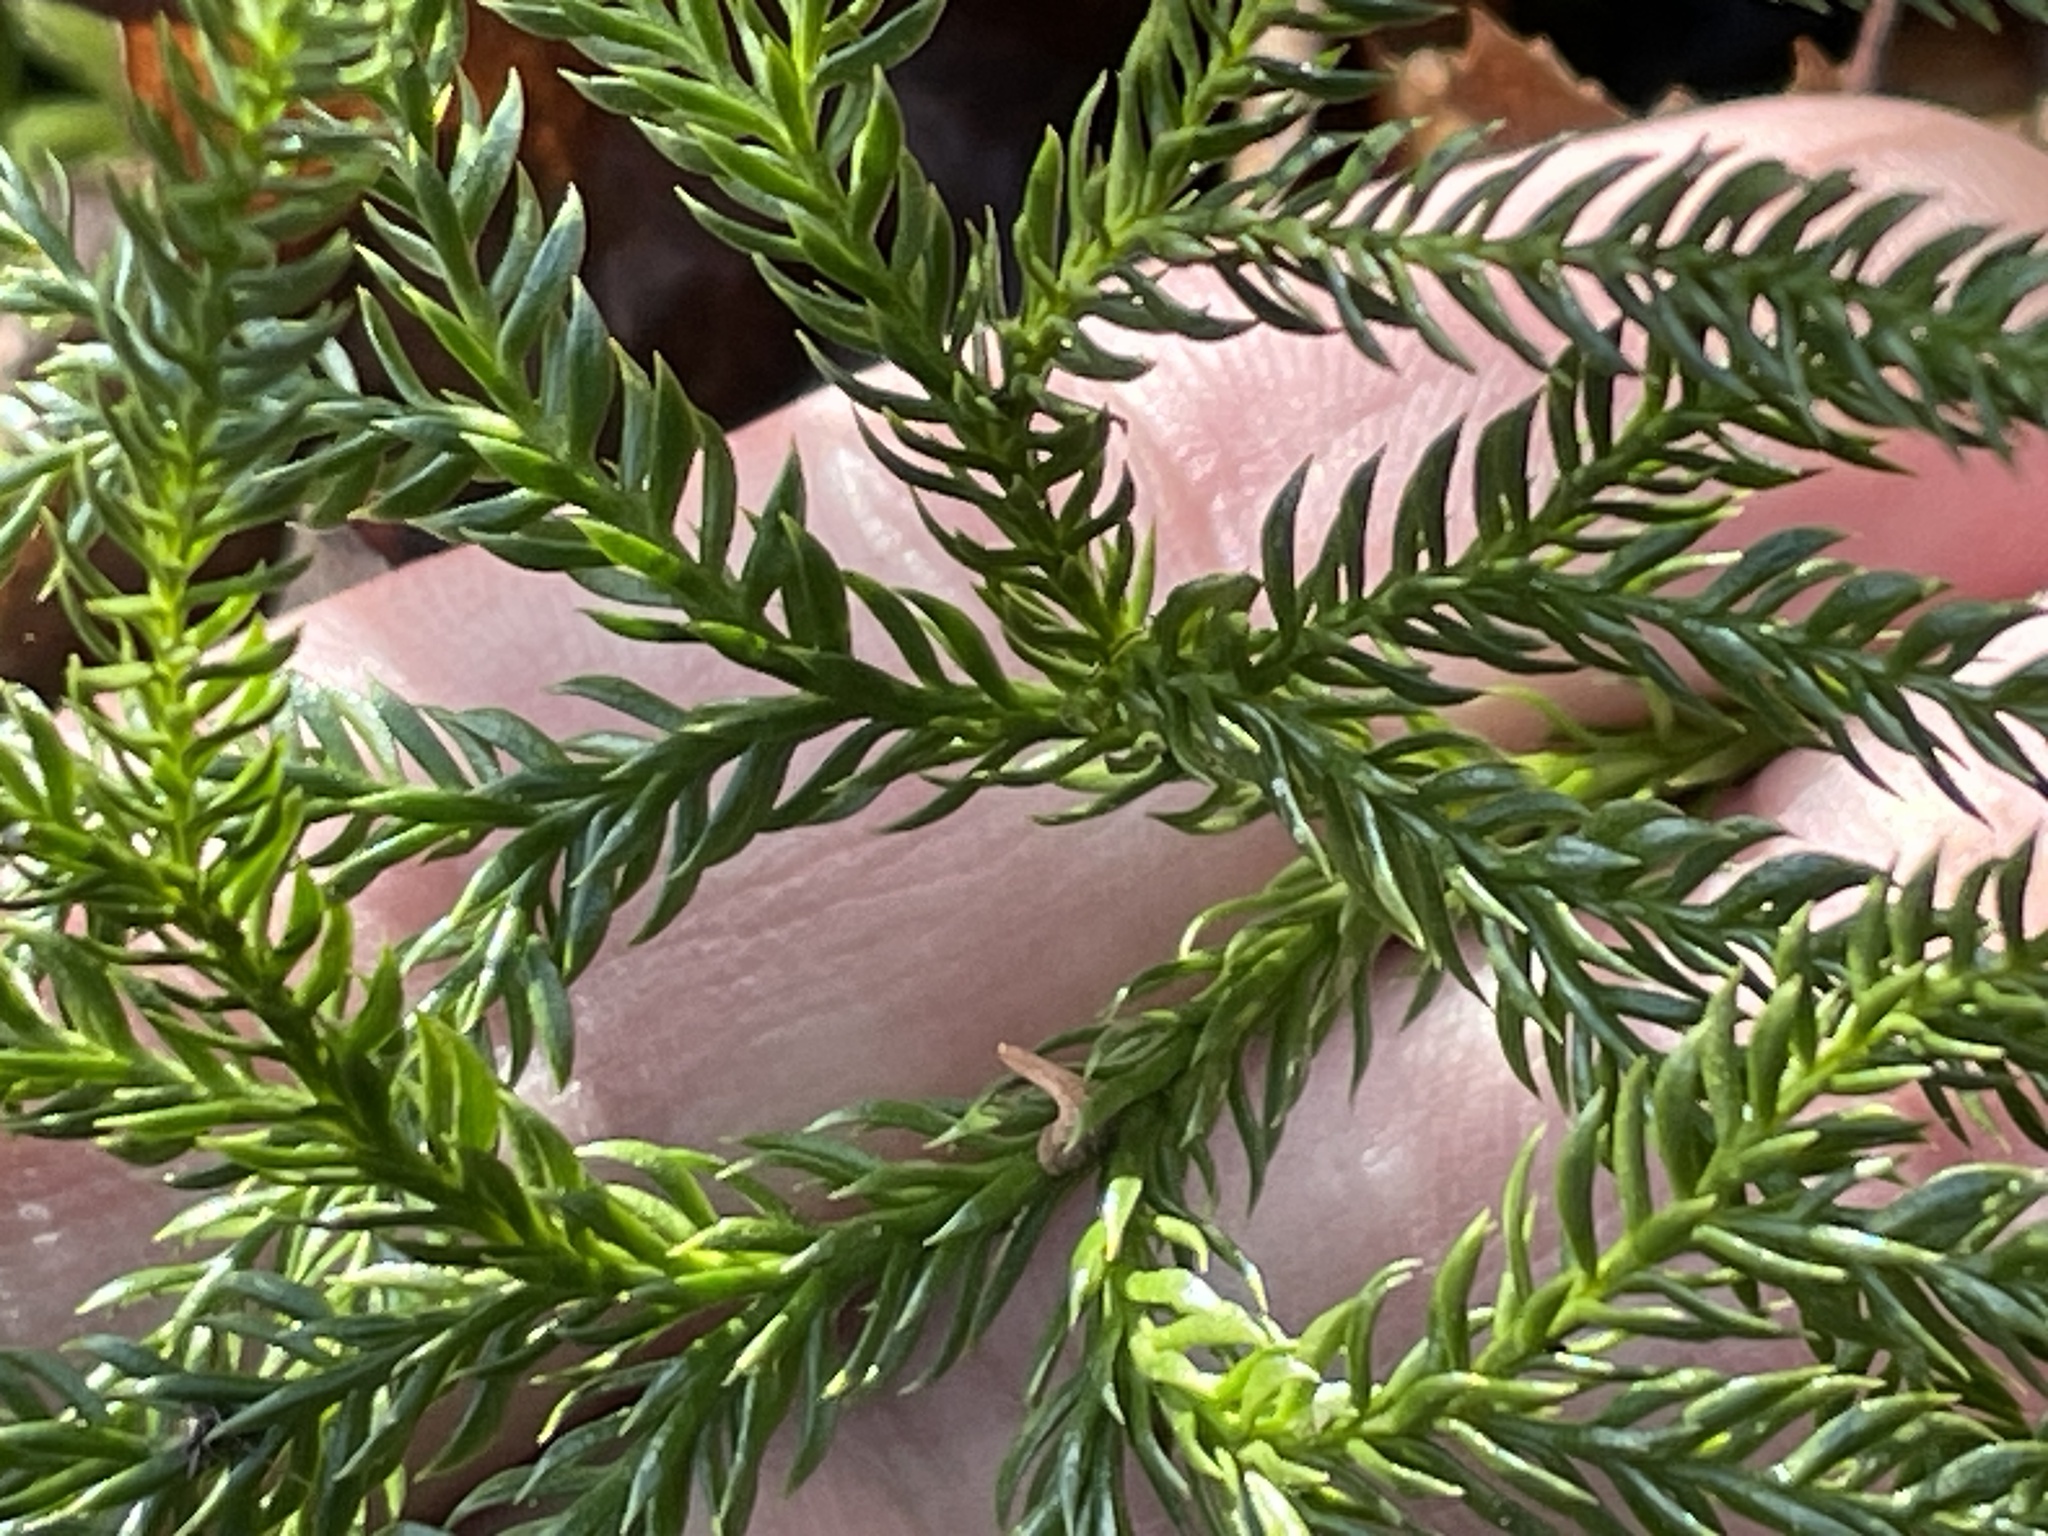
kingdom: Plantae
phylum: Tracheophyta
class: Lycopodiopsida
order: Lycopodiales
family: Lycopodiaceae
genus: Dendrolycopodium
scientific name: Dendrolycopodium obscurum
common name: Common ground-pine
